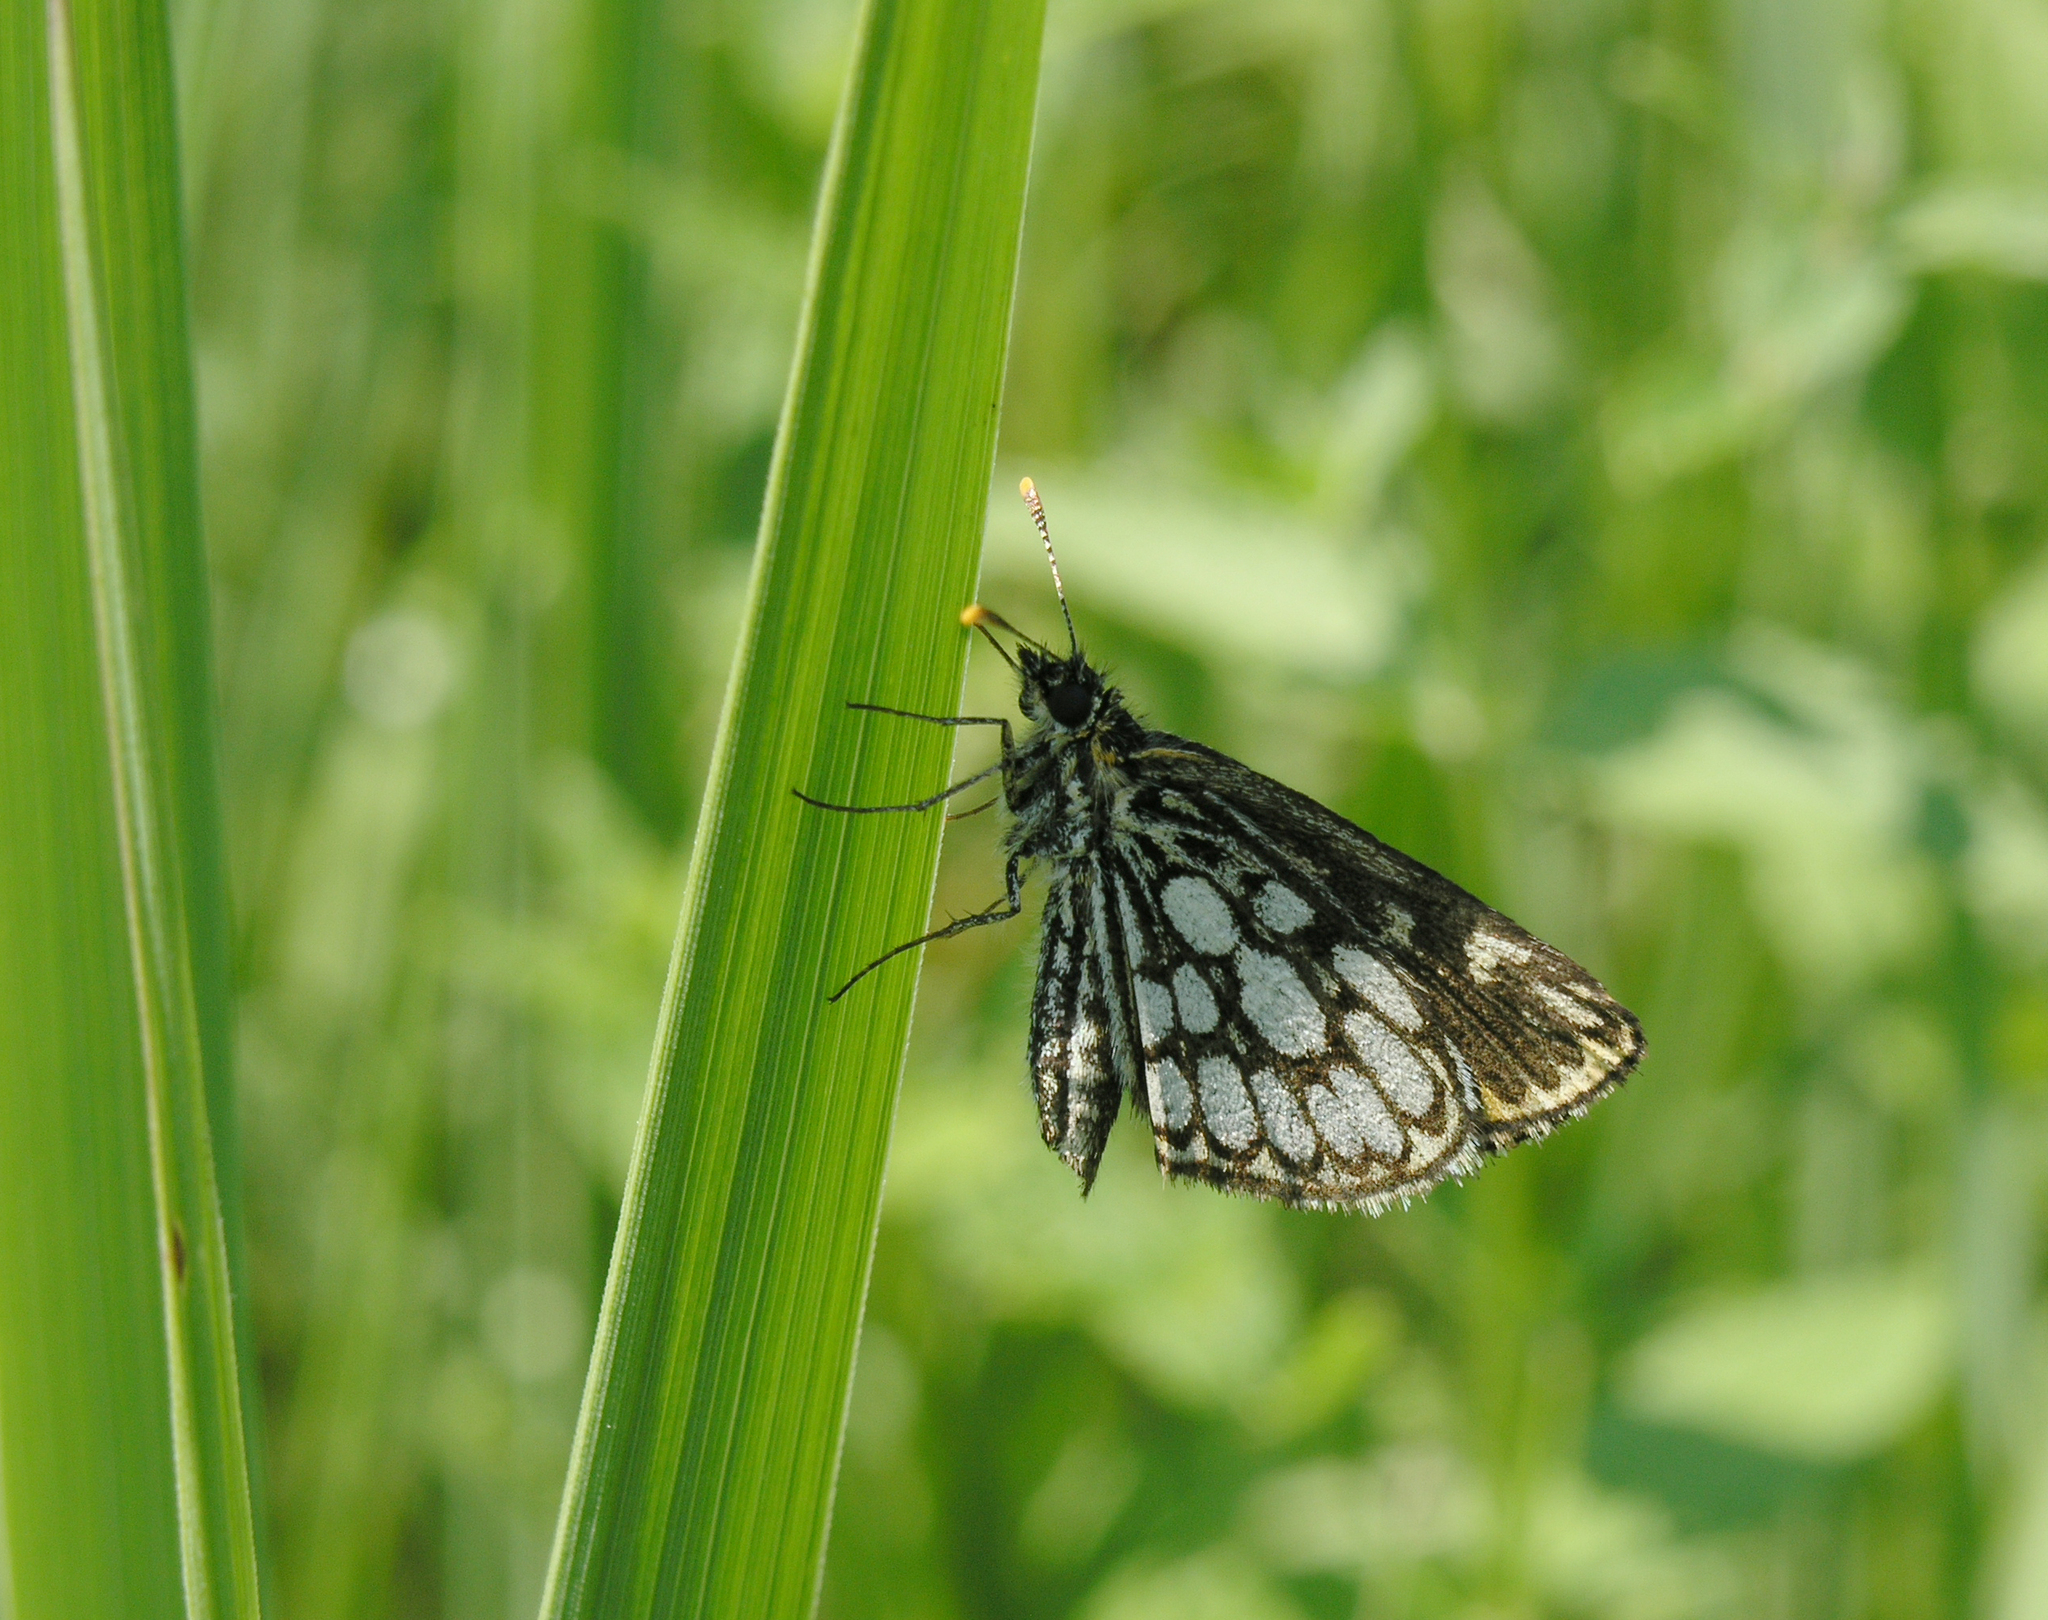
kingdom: Animalia
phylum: Arthropoda
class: Insecta
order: Lepidoptera
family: Hesperiidae
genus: Heteropterus
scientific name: Heteropterus morpheus
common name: Large chequered skipper
